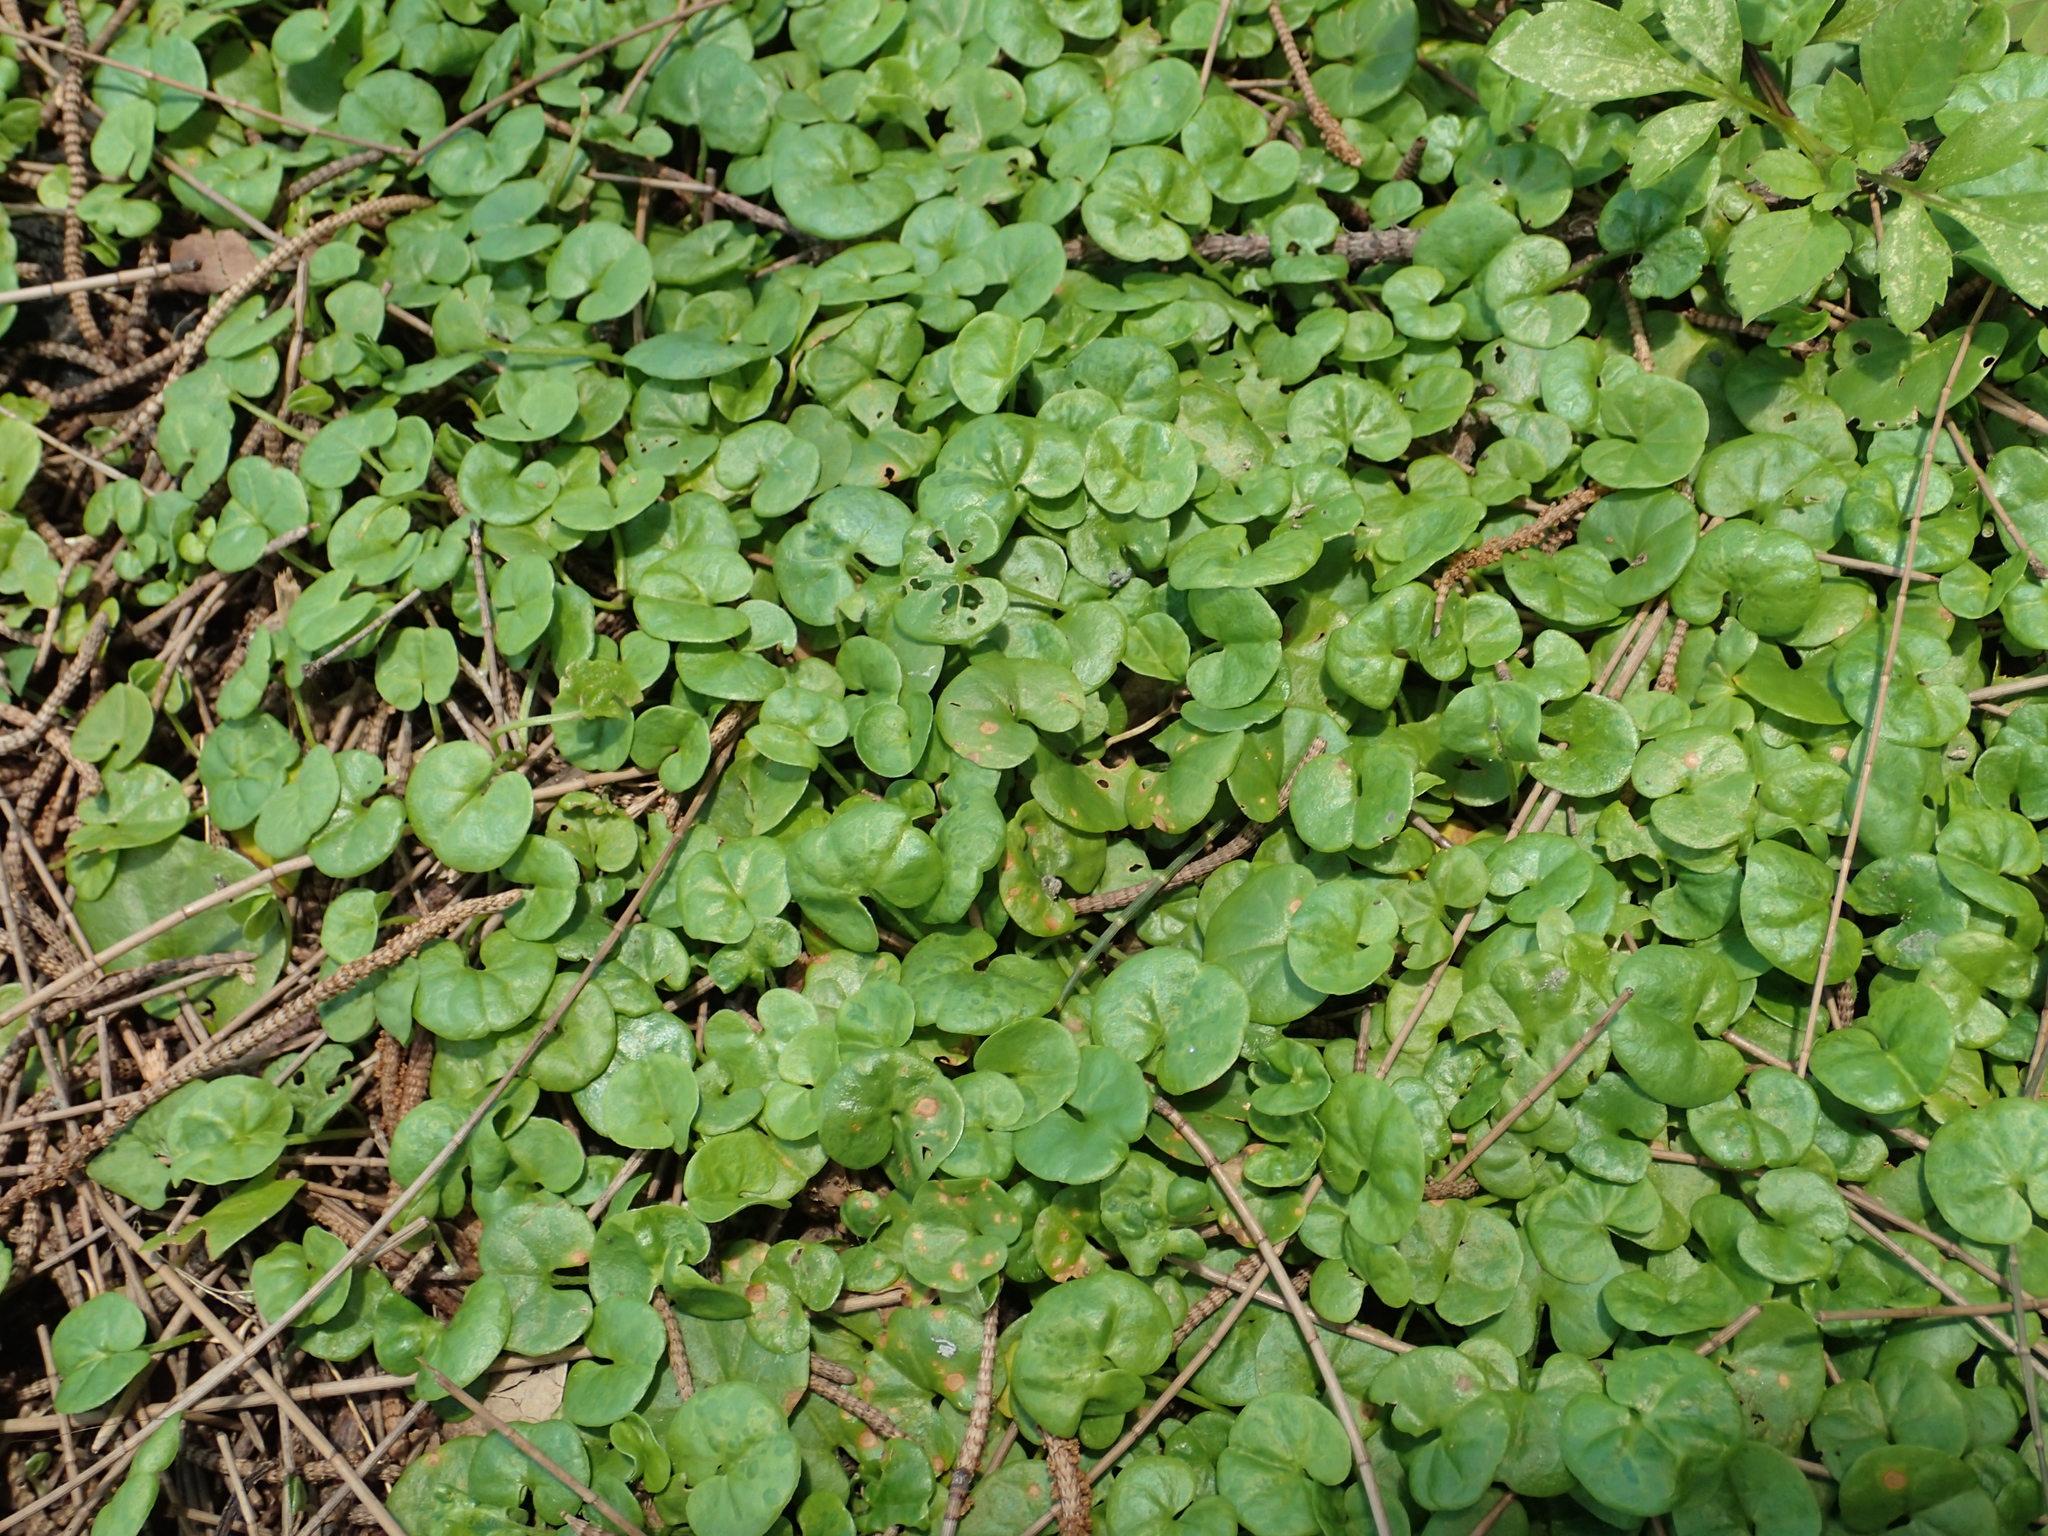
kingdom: Plantae
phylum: Tracheophyta
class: Magnoliopsida
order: Solanales
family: Convolvulaceae
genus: Dichondra
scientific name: Dichondra micrantha
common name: Kidneyweed
